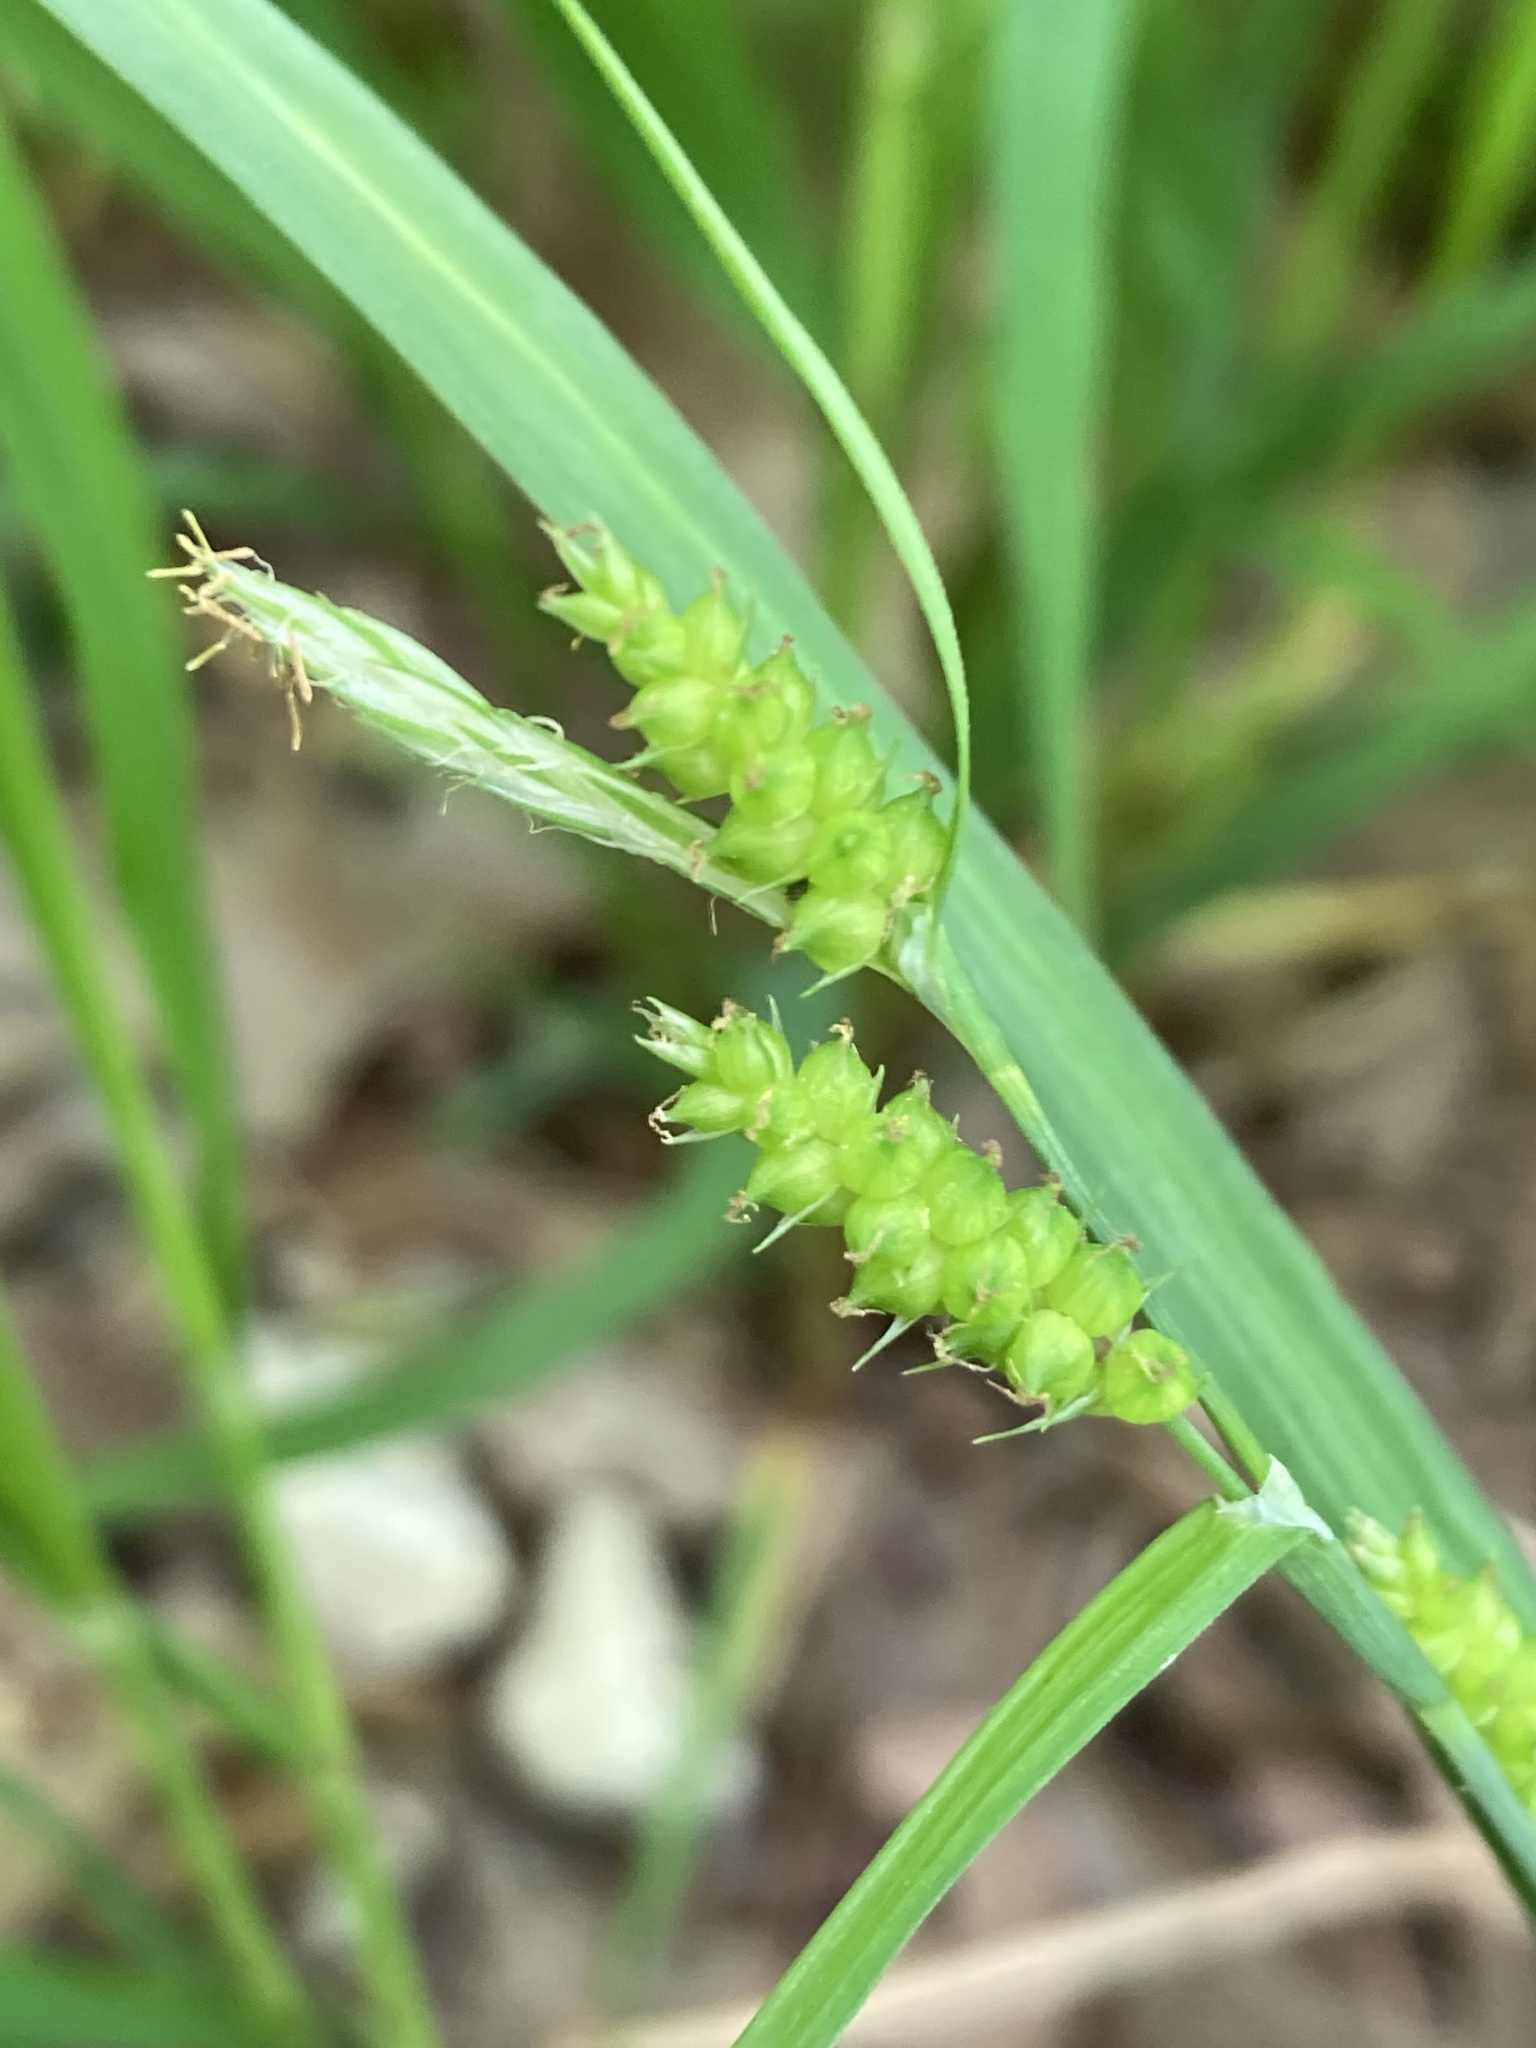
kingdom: Plantae
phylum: Tracheophyta
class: Liliopsida
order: Poales
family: Cyperaceae
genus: Carex
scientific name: Carex granularis
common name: Granular sedge
